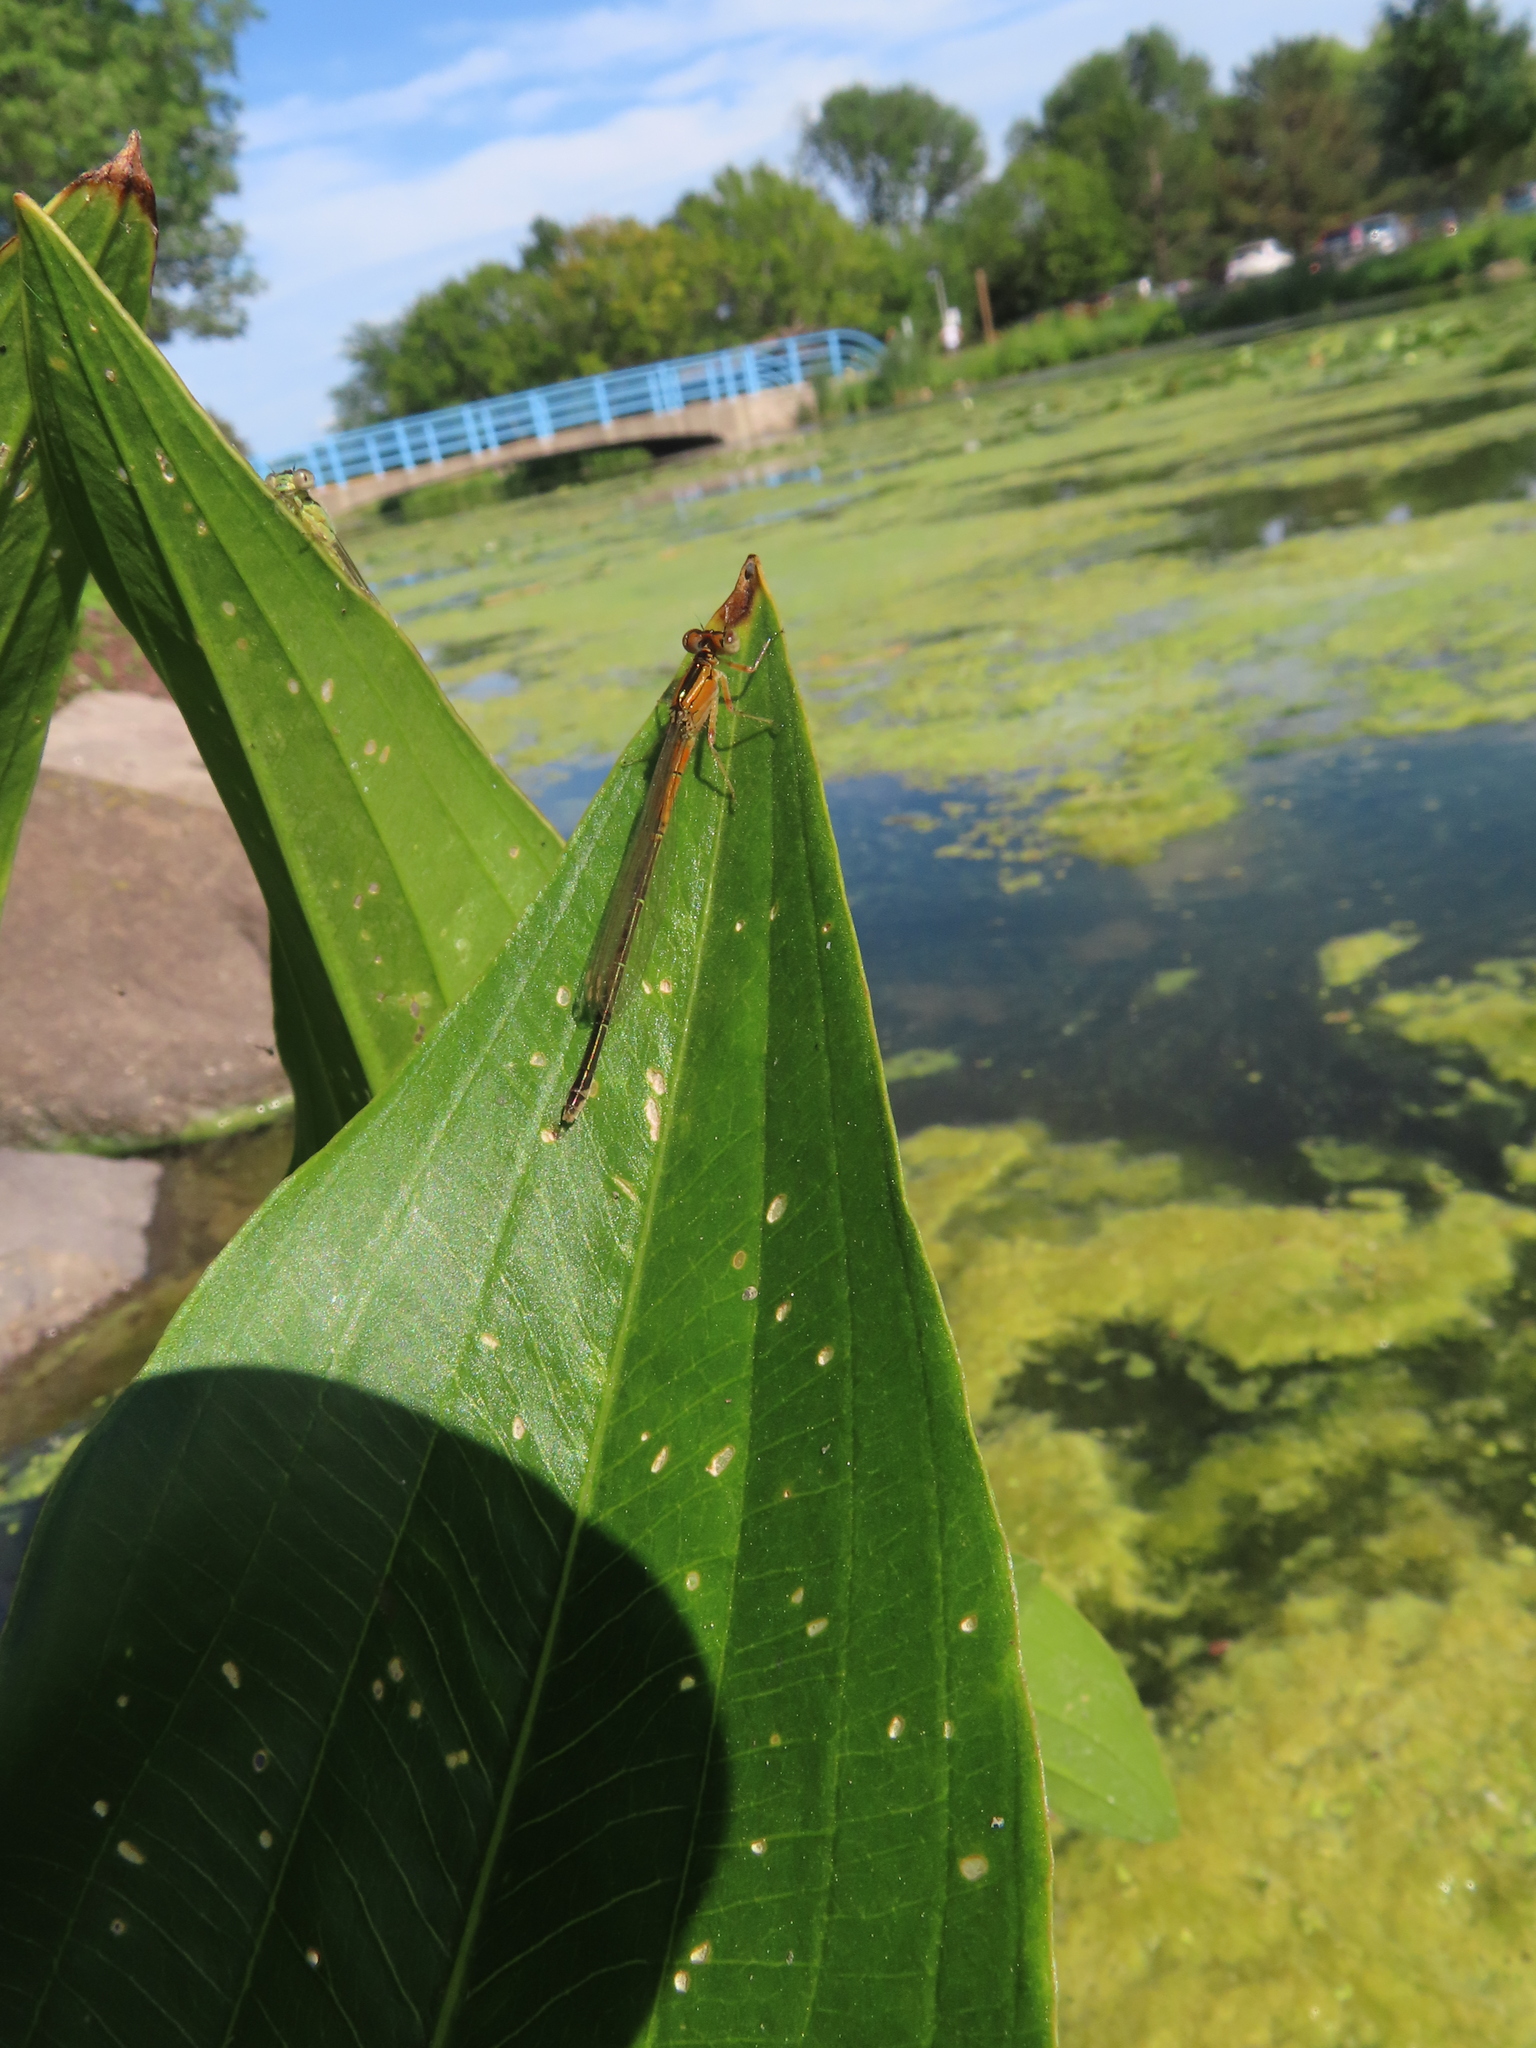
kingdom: Animalia
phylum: Arthropoda
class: Insecta
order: Odonata
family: Coenagrionidae
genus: Ischnura
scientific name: Ischnura verticalis
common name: Eastern forktail
